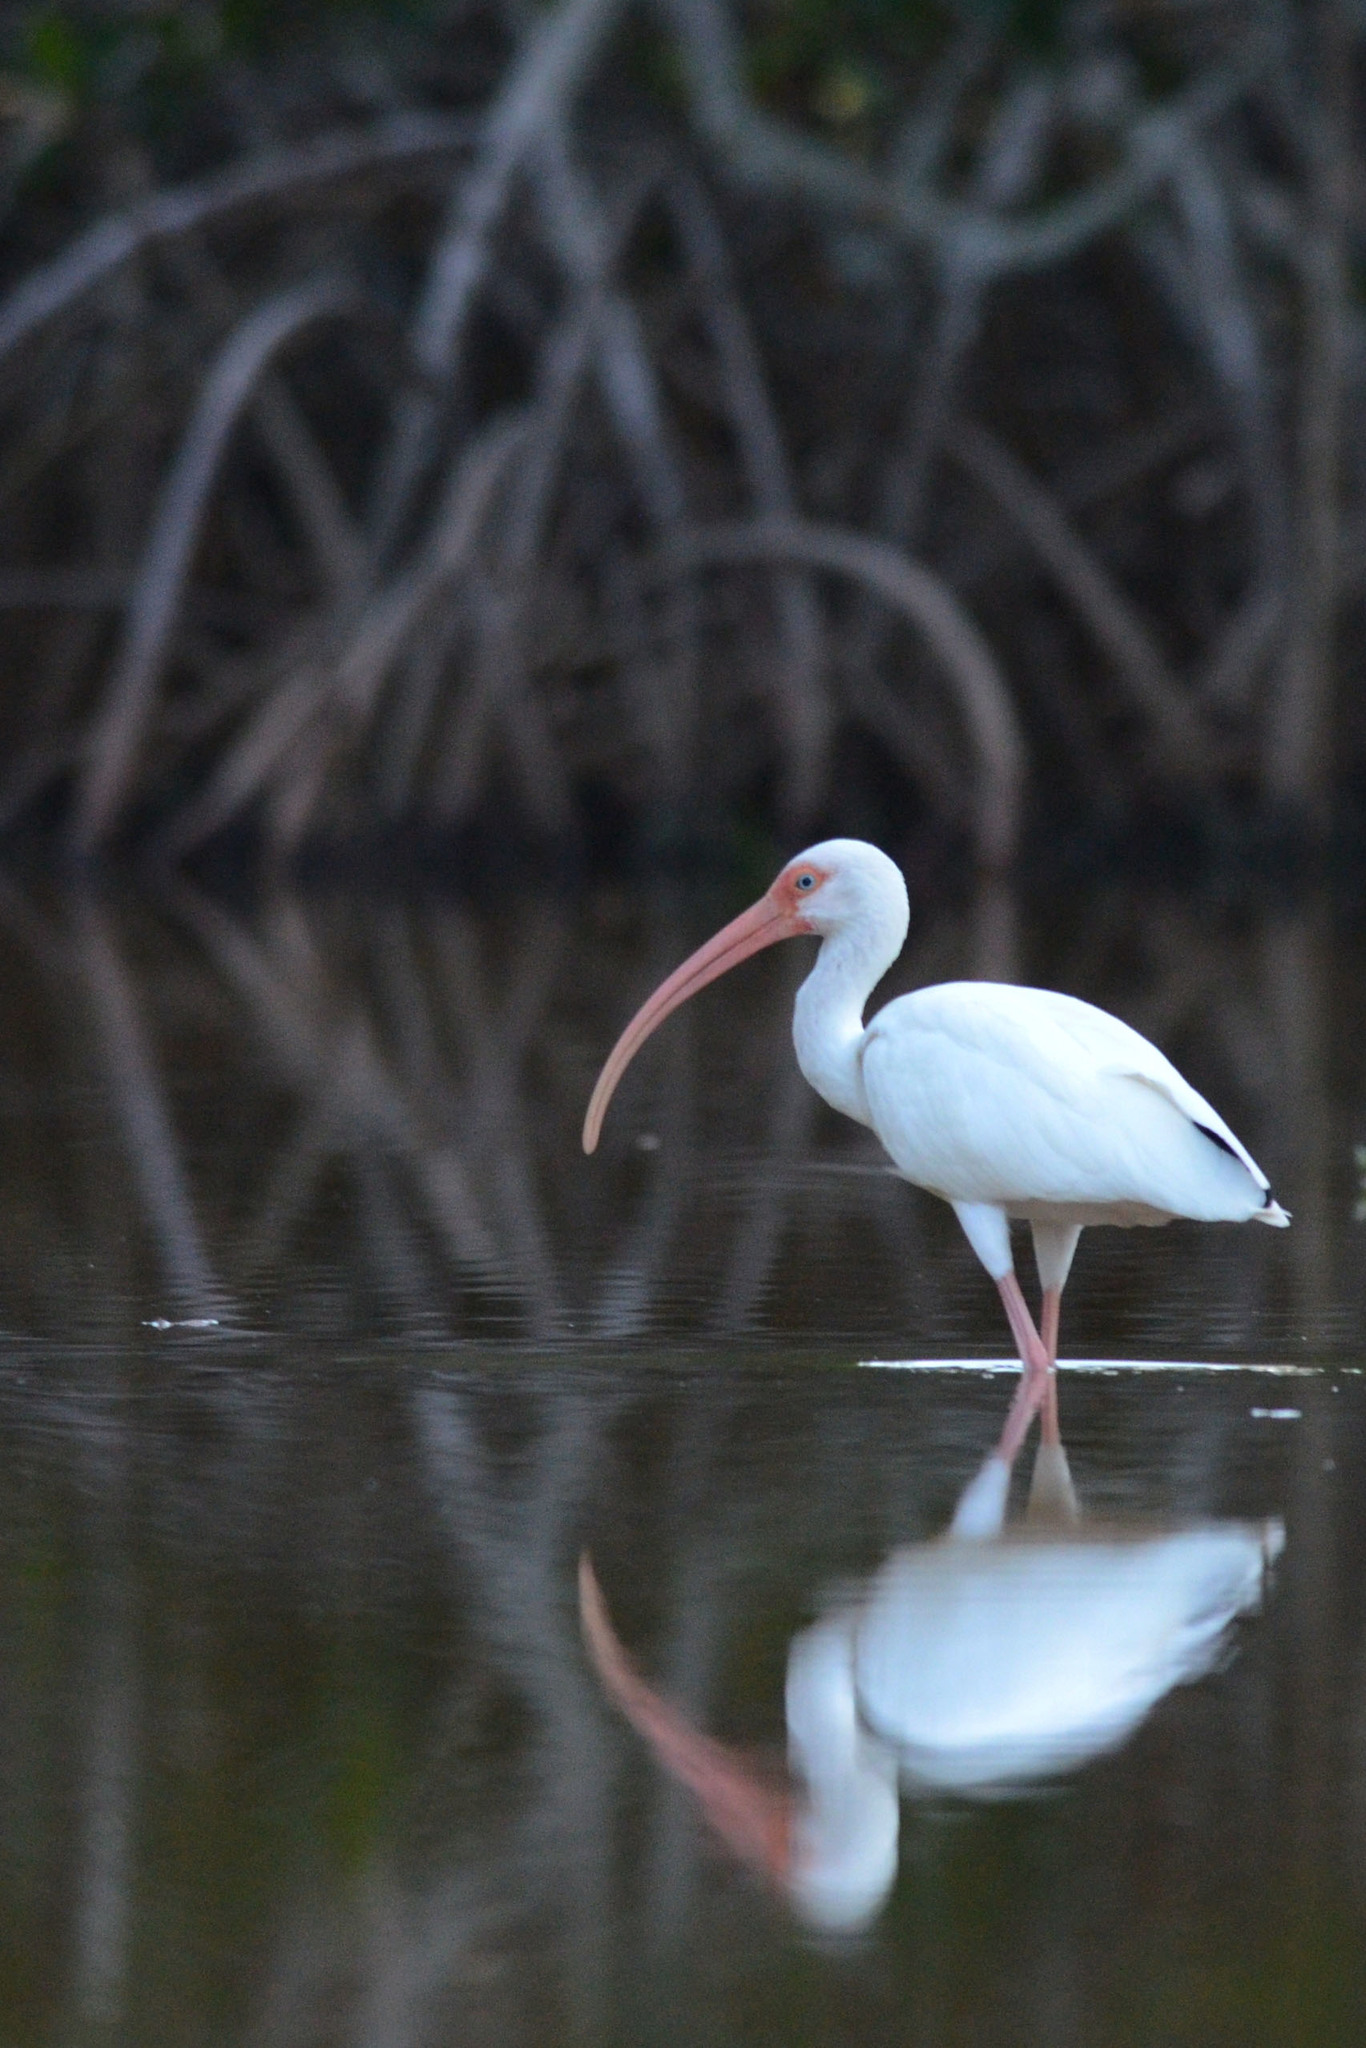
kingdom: Animalia
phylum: Chordata
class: Aves
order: Pelecaniformes
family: Threskiornithidae
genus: Eudocimus
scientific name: Eudocimus albus
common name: White ibis
